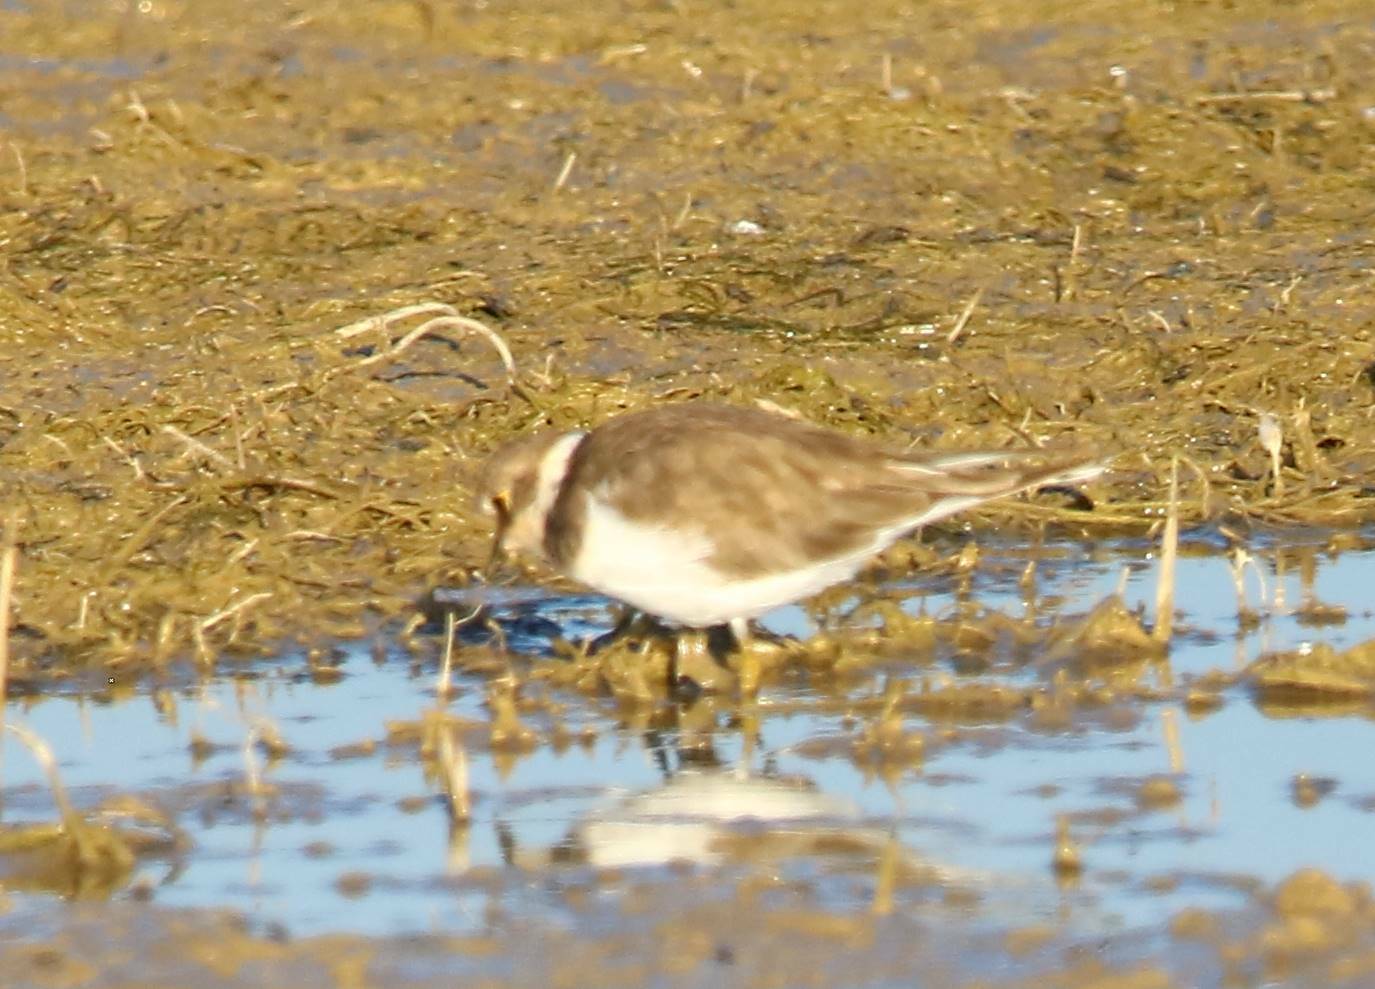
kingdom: Animalia
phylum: Chordata
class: Aves
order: Charadriiformes
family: Charadriidae
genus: Charadrius
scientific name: Charadrius dubius
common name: Little ringed plover
